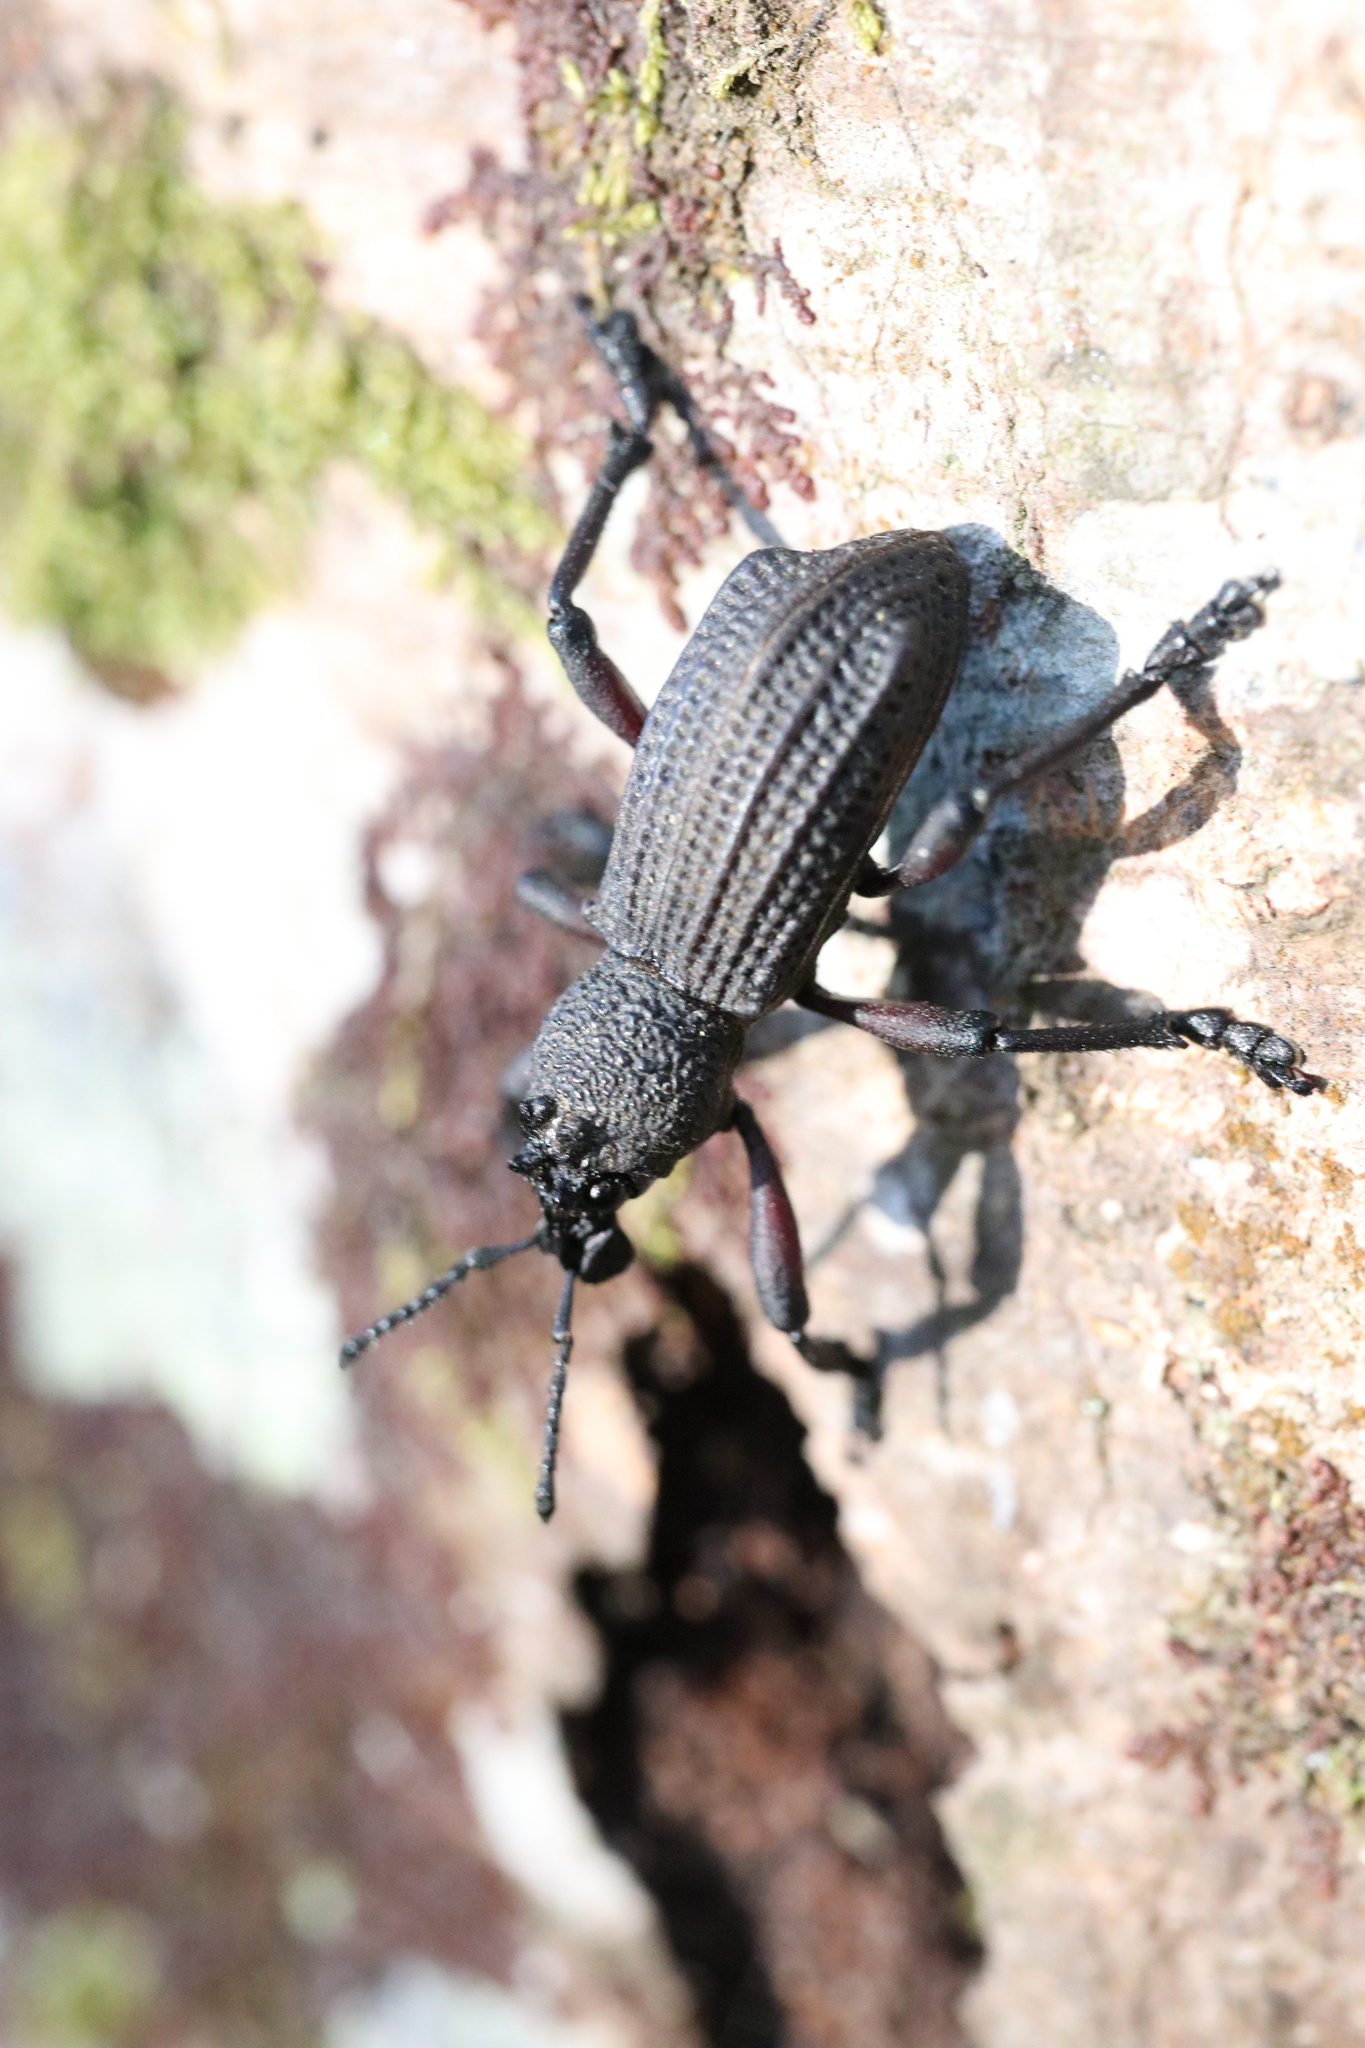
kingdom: Animalia
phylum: Arthropoda
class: Insecta
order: Coleoptera
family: Curculionidae
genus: Aegorhinus
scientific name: Aegorhinus
